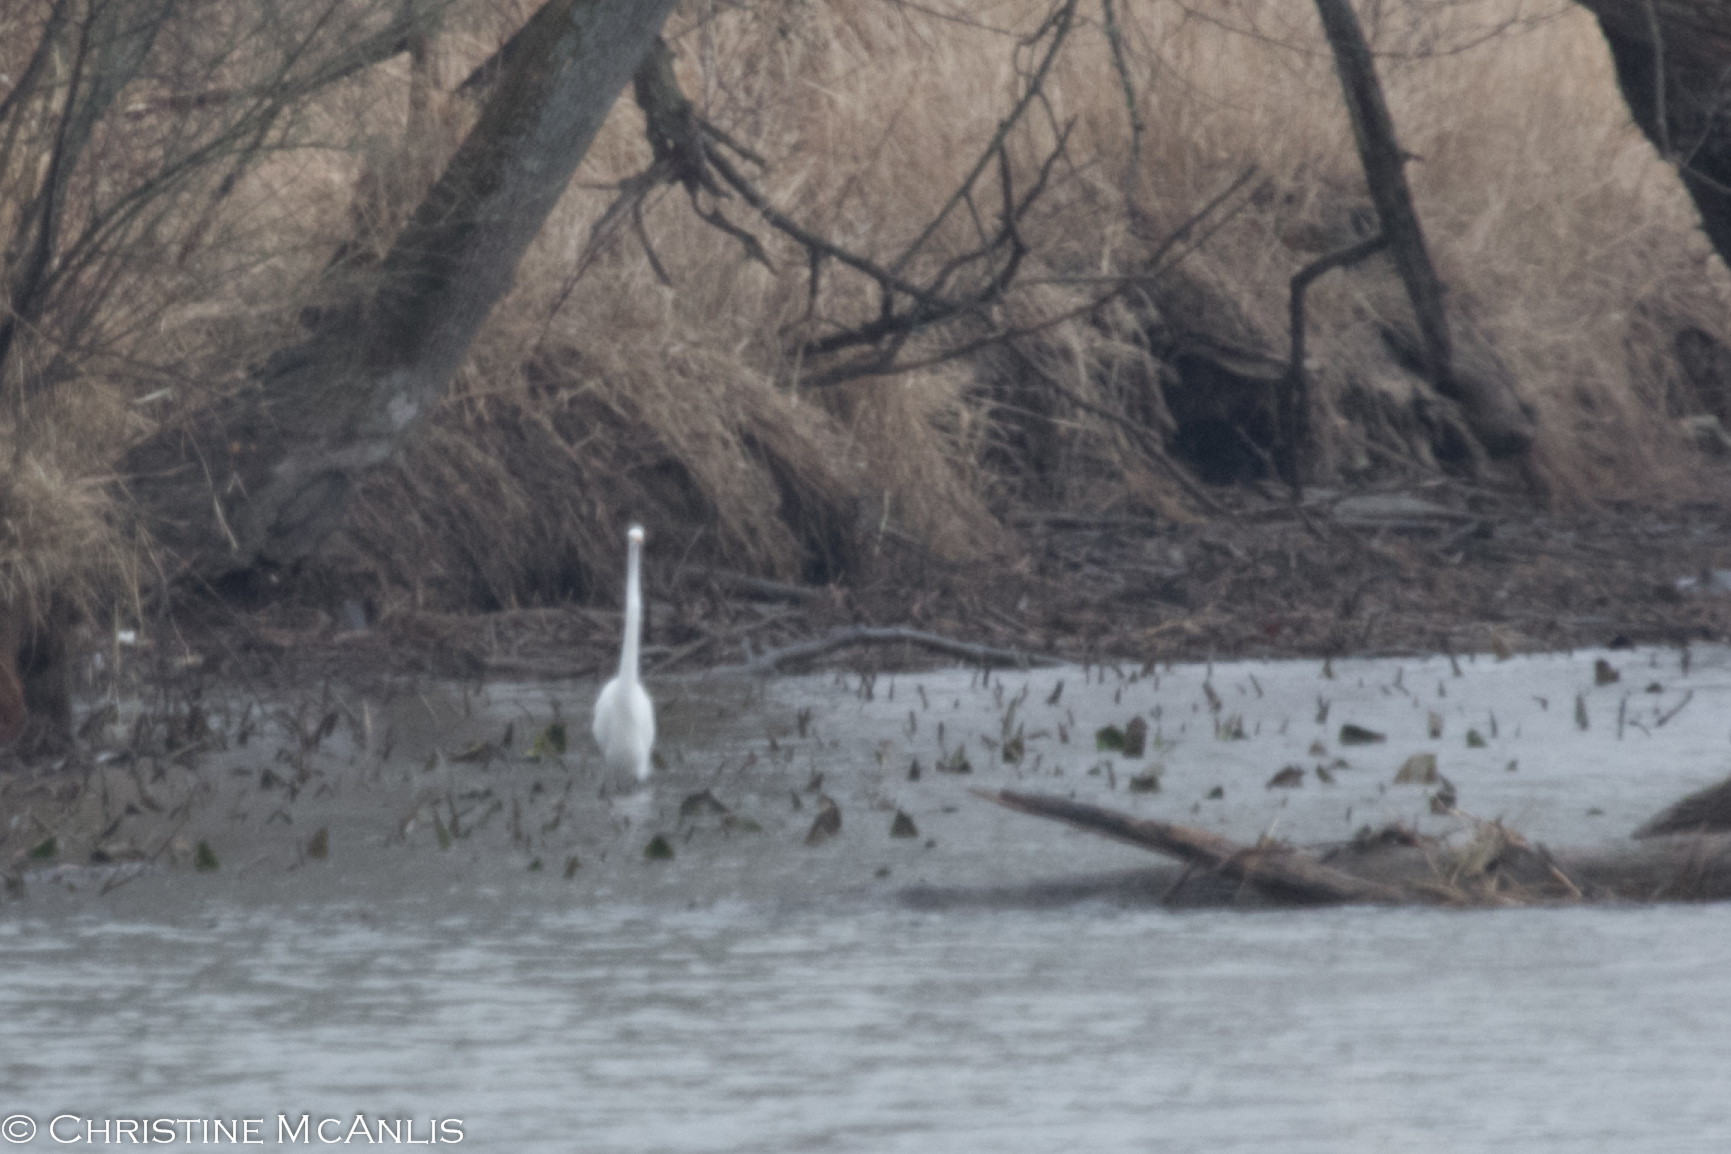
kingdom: Animalia
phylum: Chordata
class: Aves
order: Pelecaniformes
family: Ardeidae
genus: Ardea
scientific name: Ardea alba
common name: Great egret
